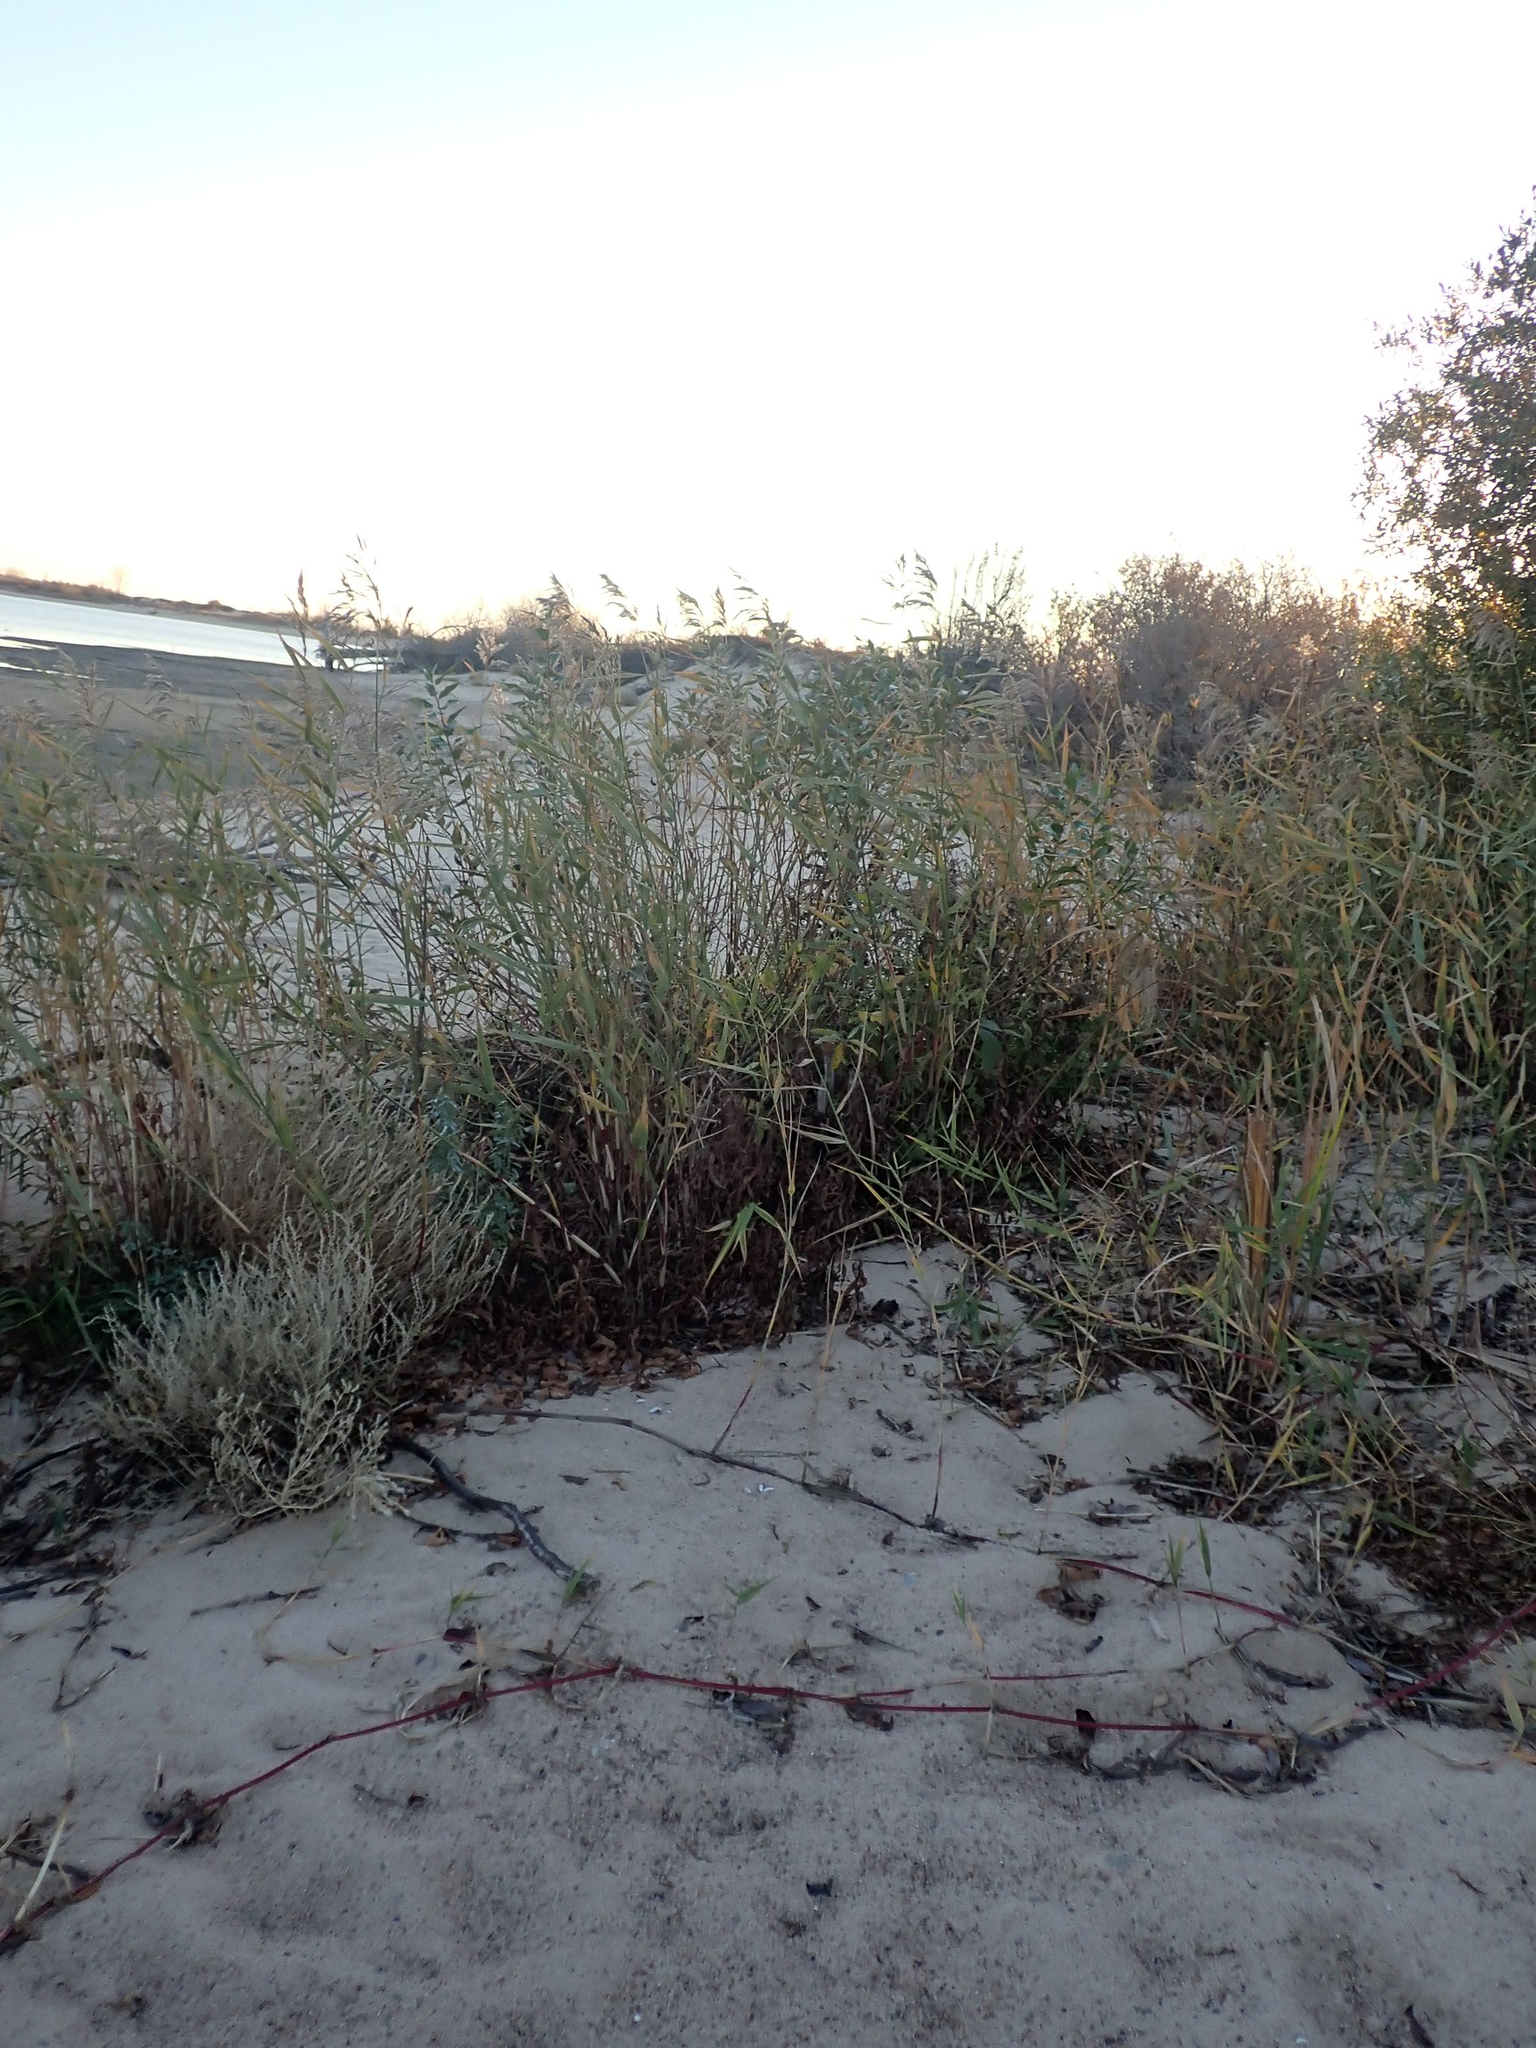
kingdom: Plantae
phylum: Tracheophyta
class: Liliopsida
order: Poales
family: Poaceae
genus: Phragmites
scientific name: Phragmites australis
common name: Common reed
